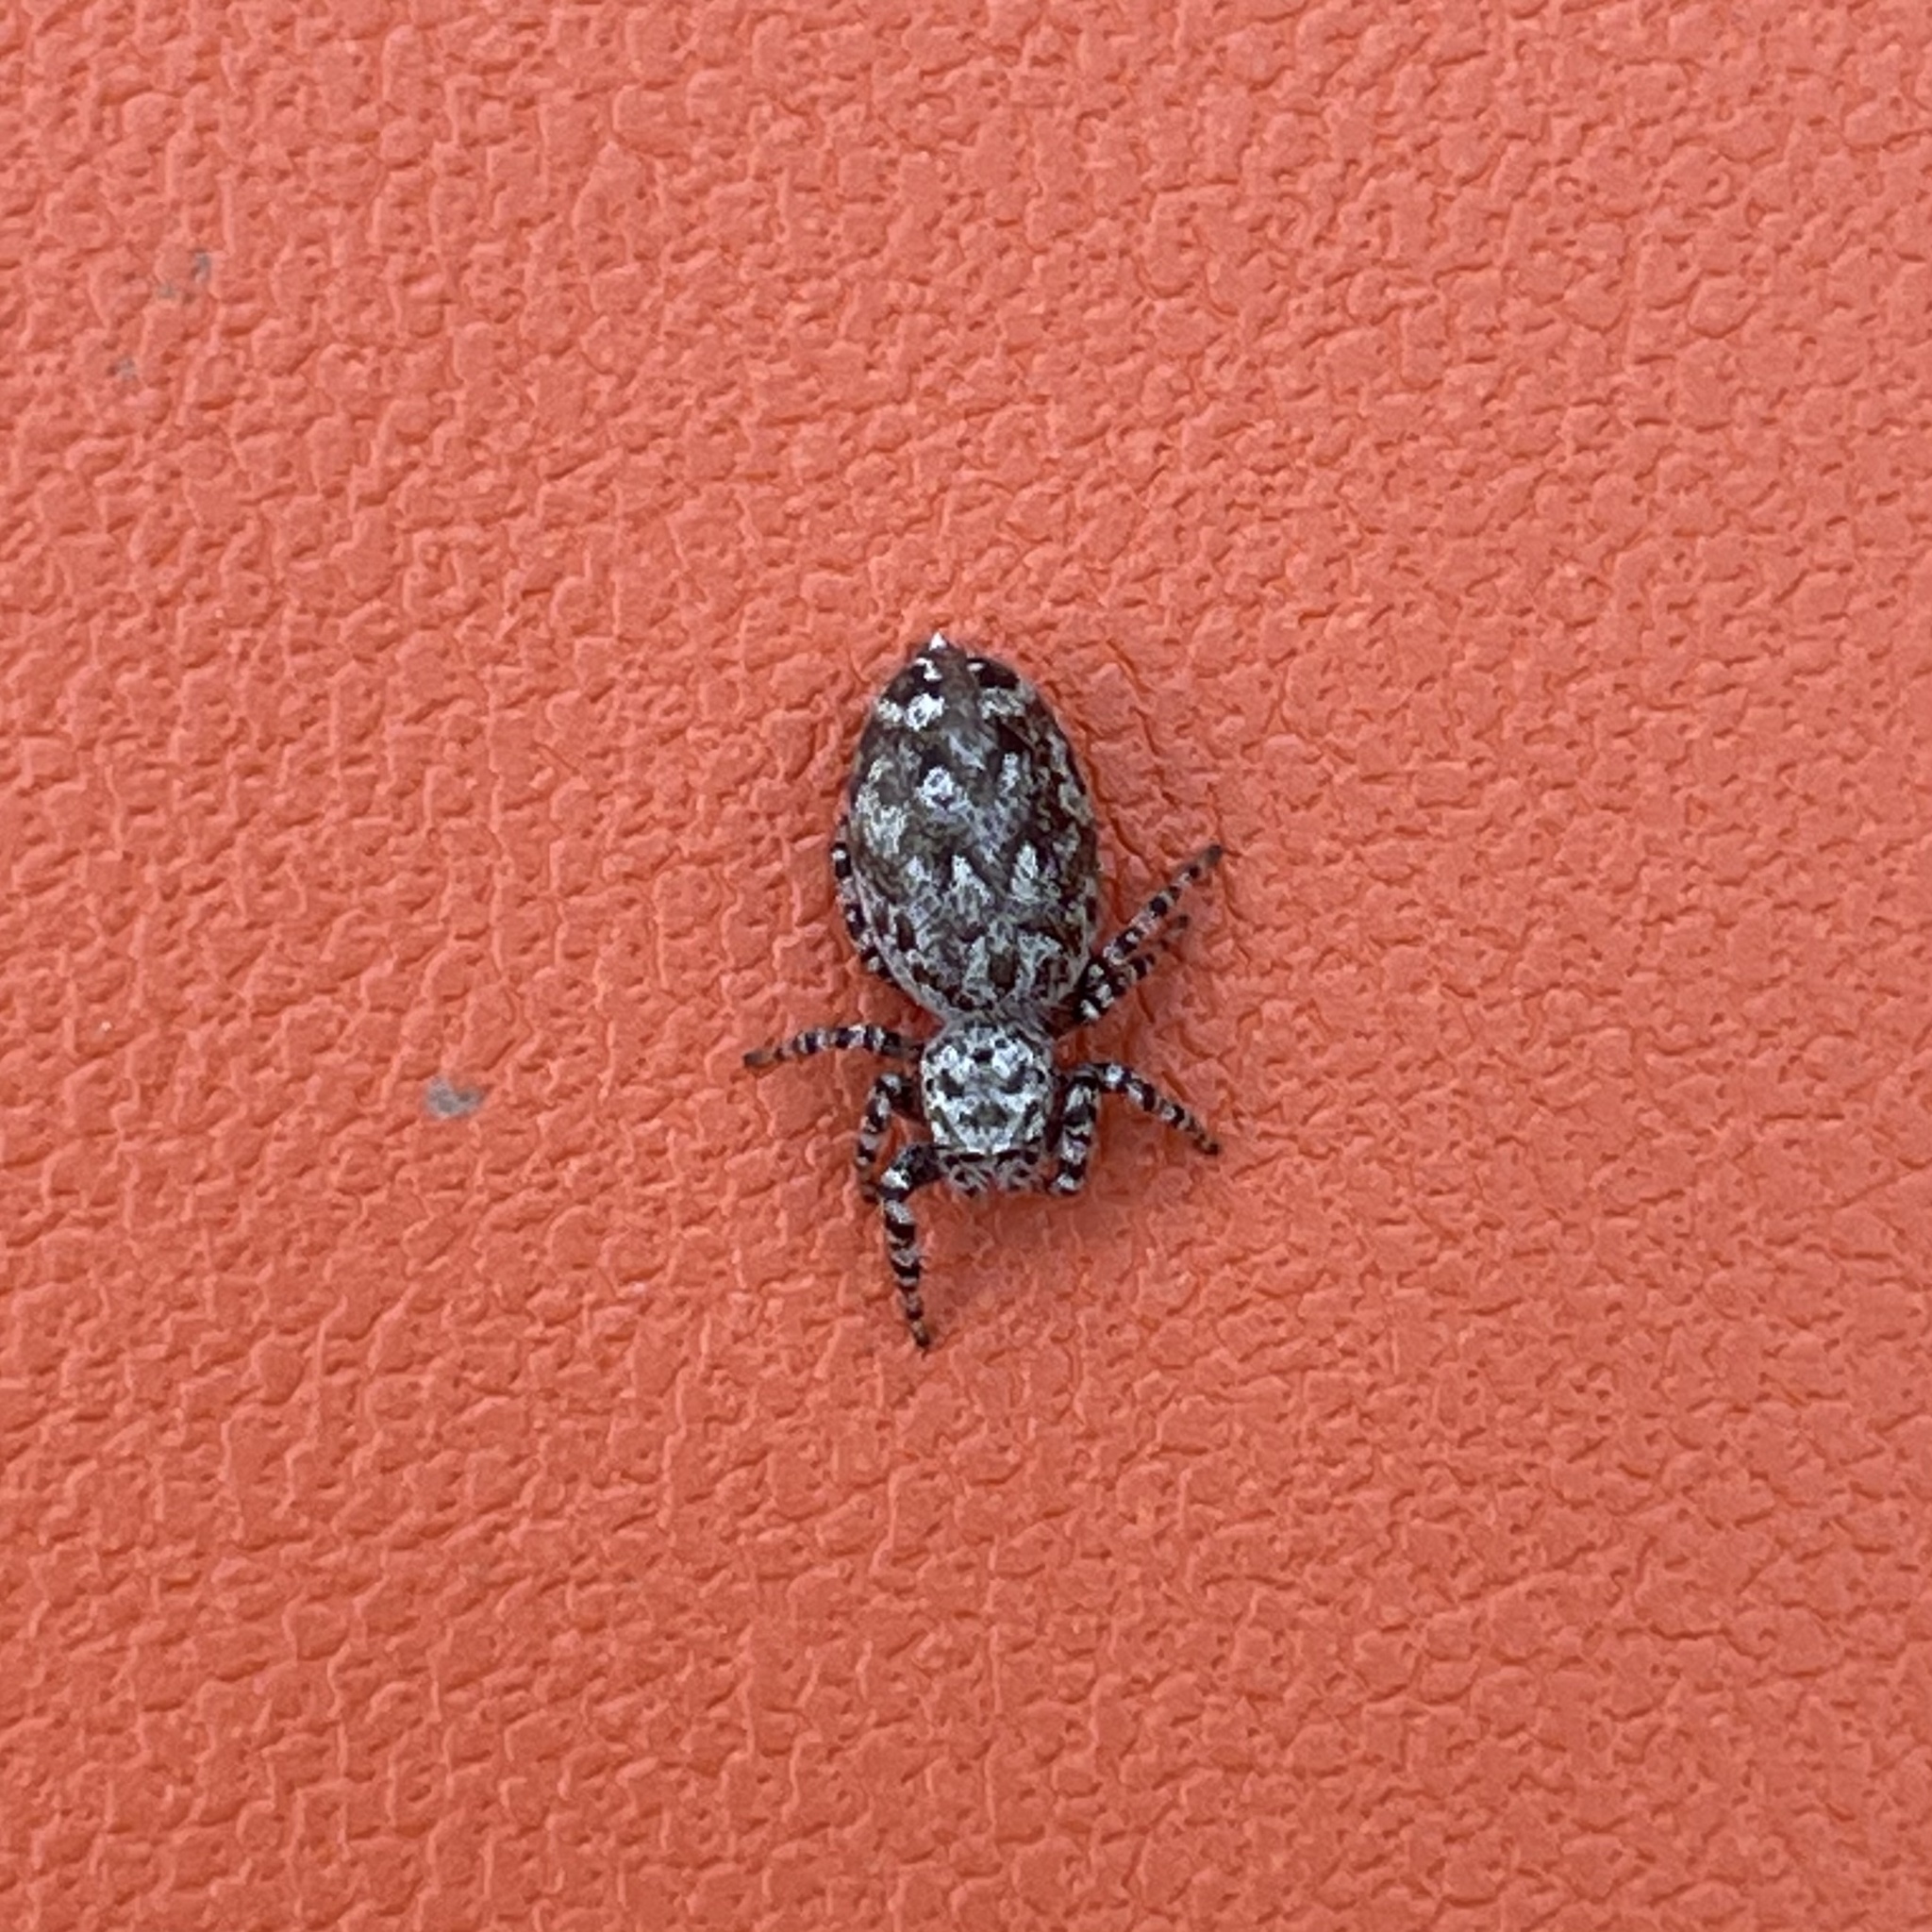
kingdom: Animalia
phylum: Arthropoda
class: Arachnida
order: Araneae
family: Salticidae
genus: Pelegrina
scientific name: Pelegrina galathea
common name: Jumping spiders
